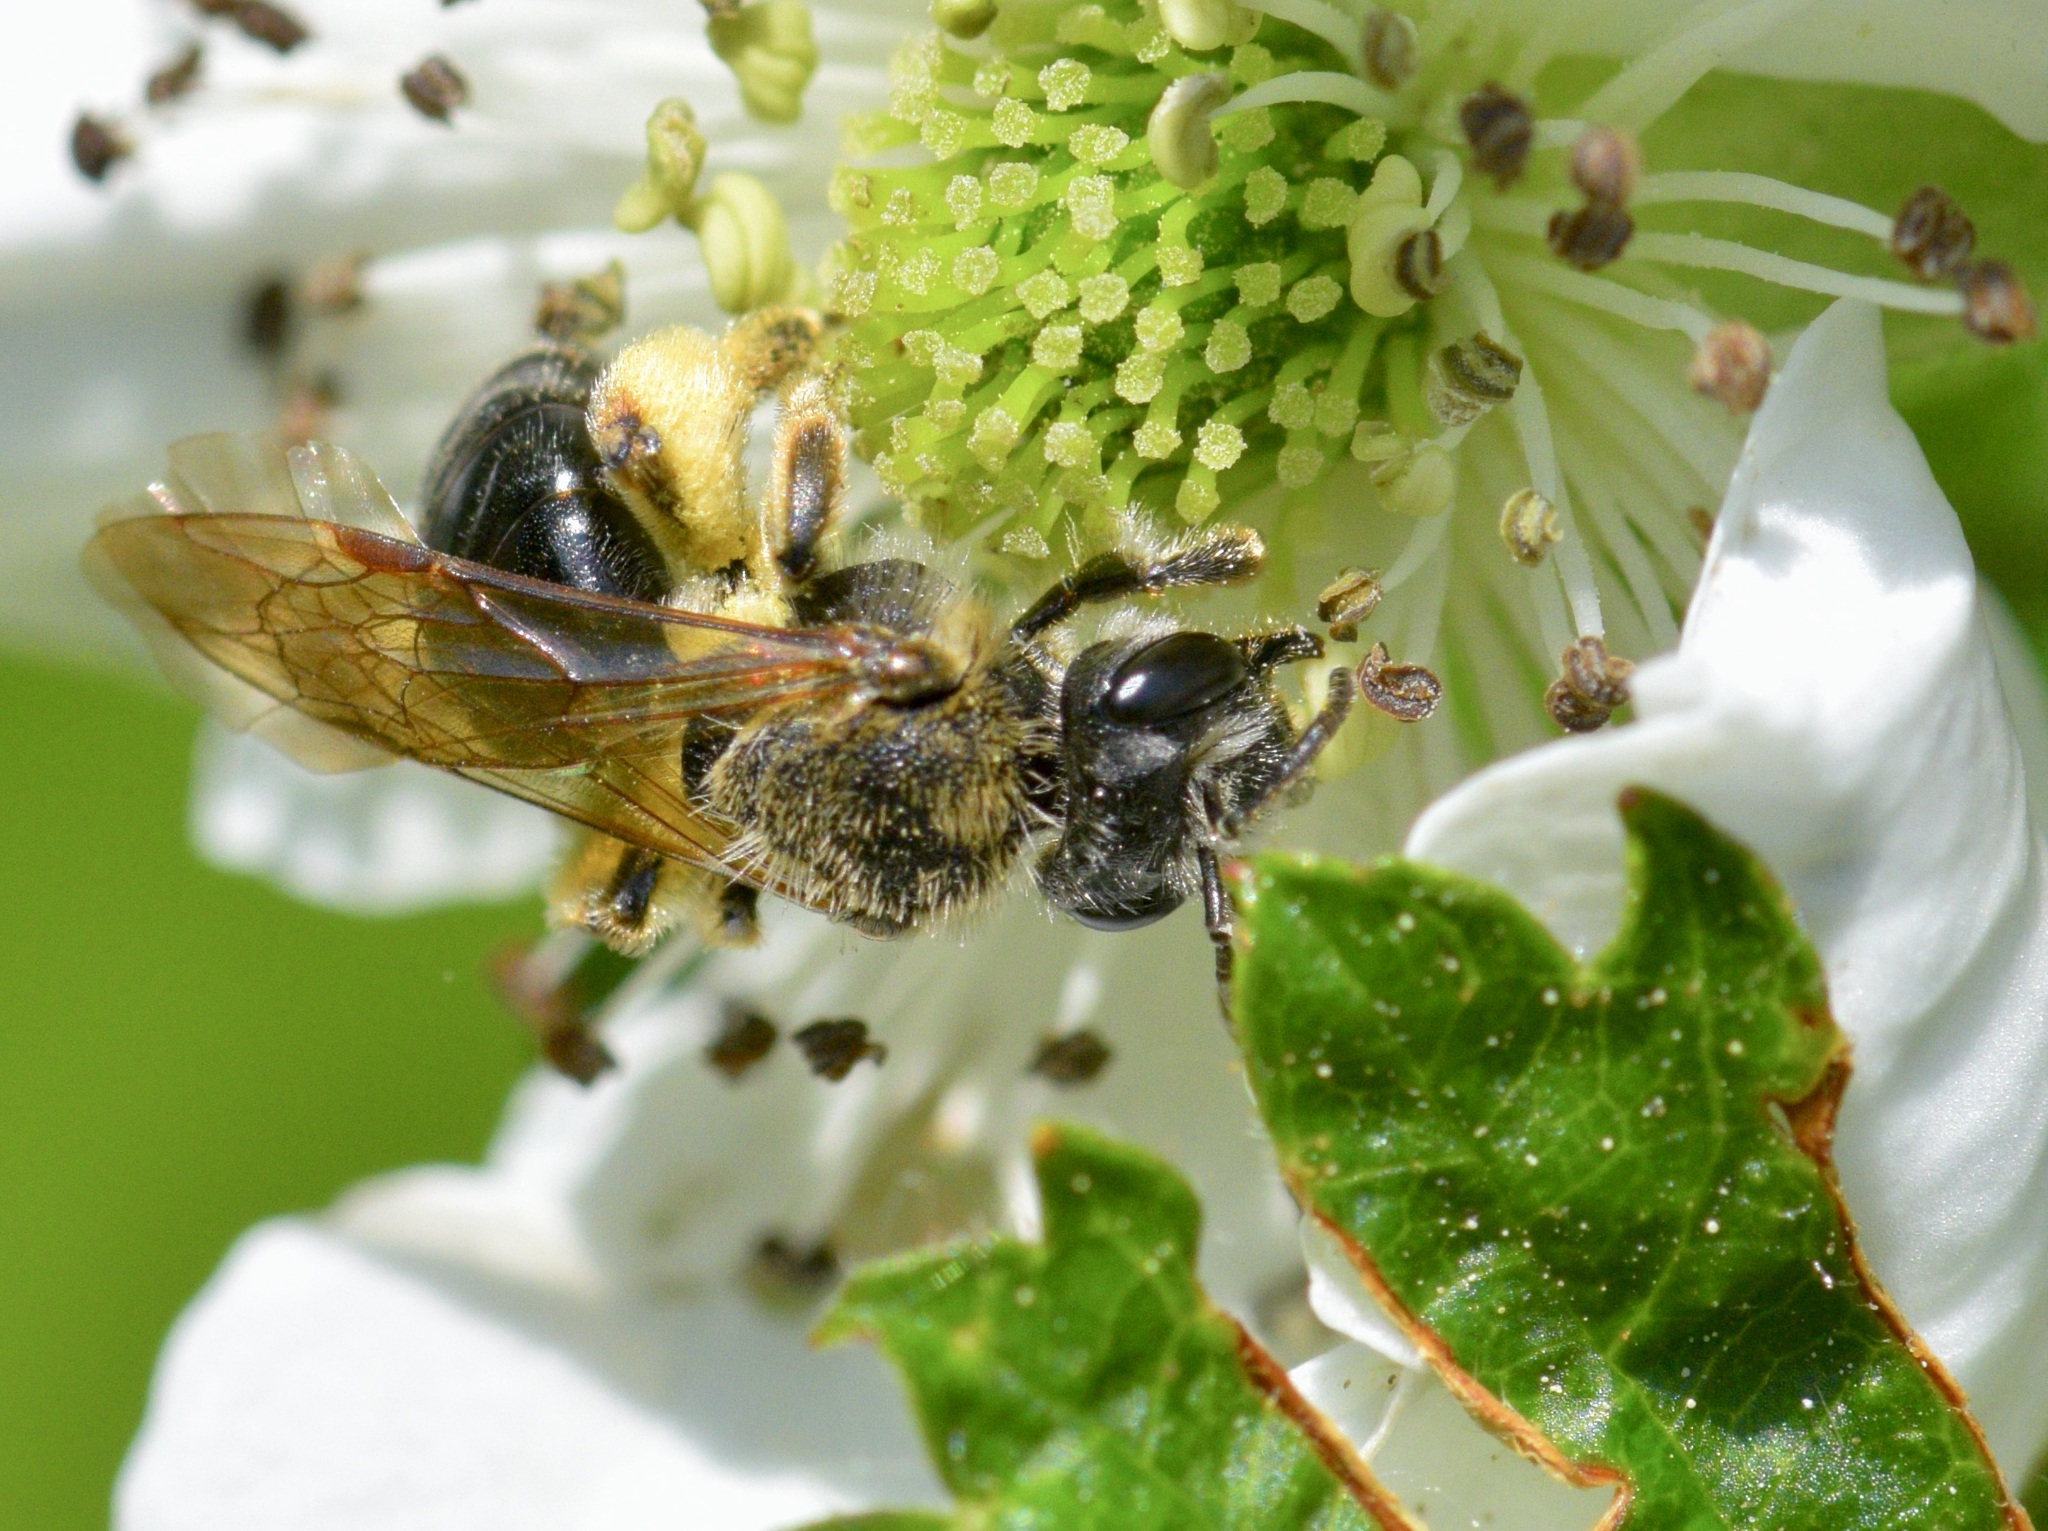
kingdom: Animalia
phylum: Arthropoda
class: Insecta
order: Hymenoptera
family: Andrenidae
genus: Andrena
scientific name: Andrena rugosa
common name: Rugose mining bee
